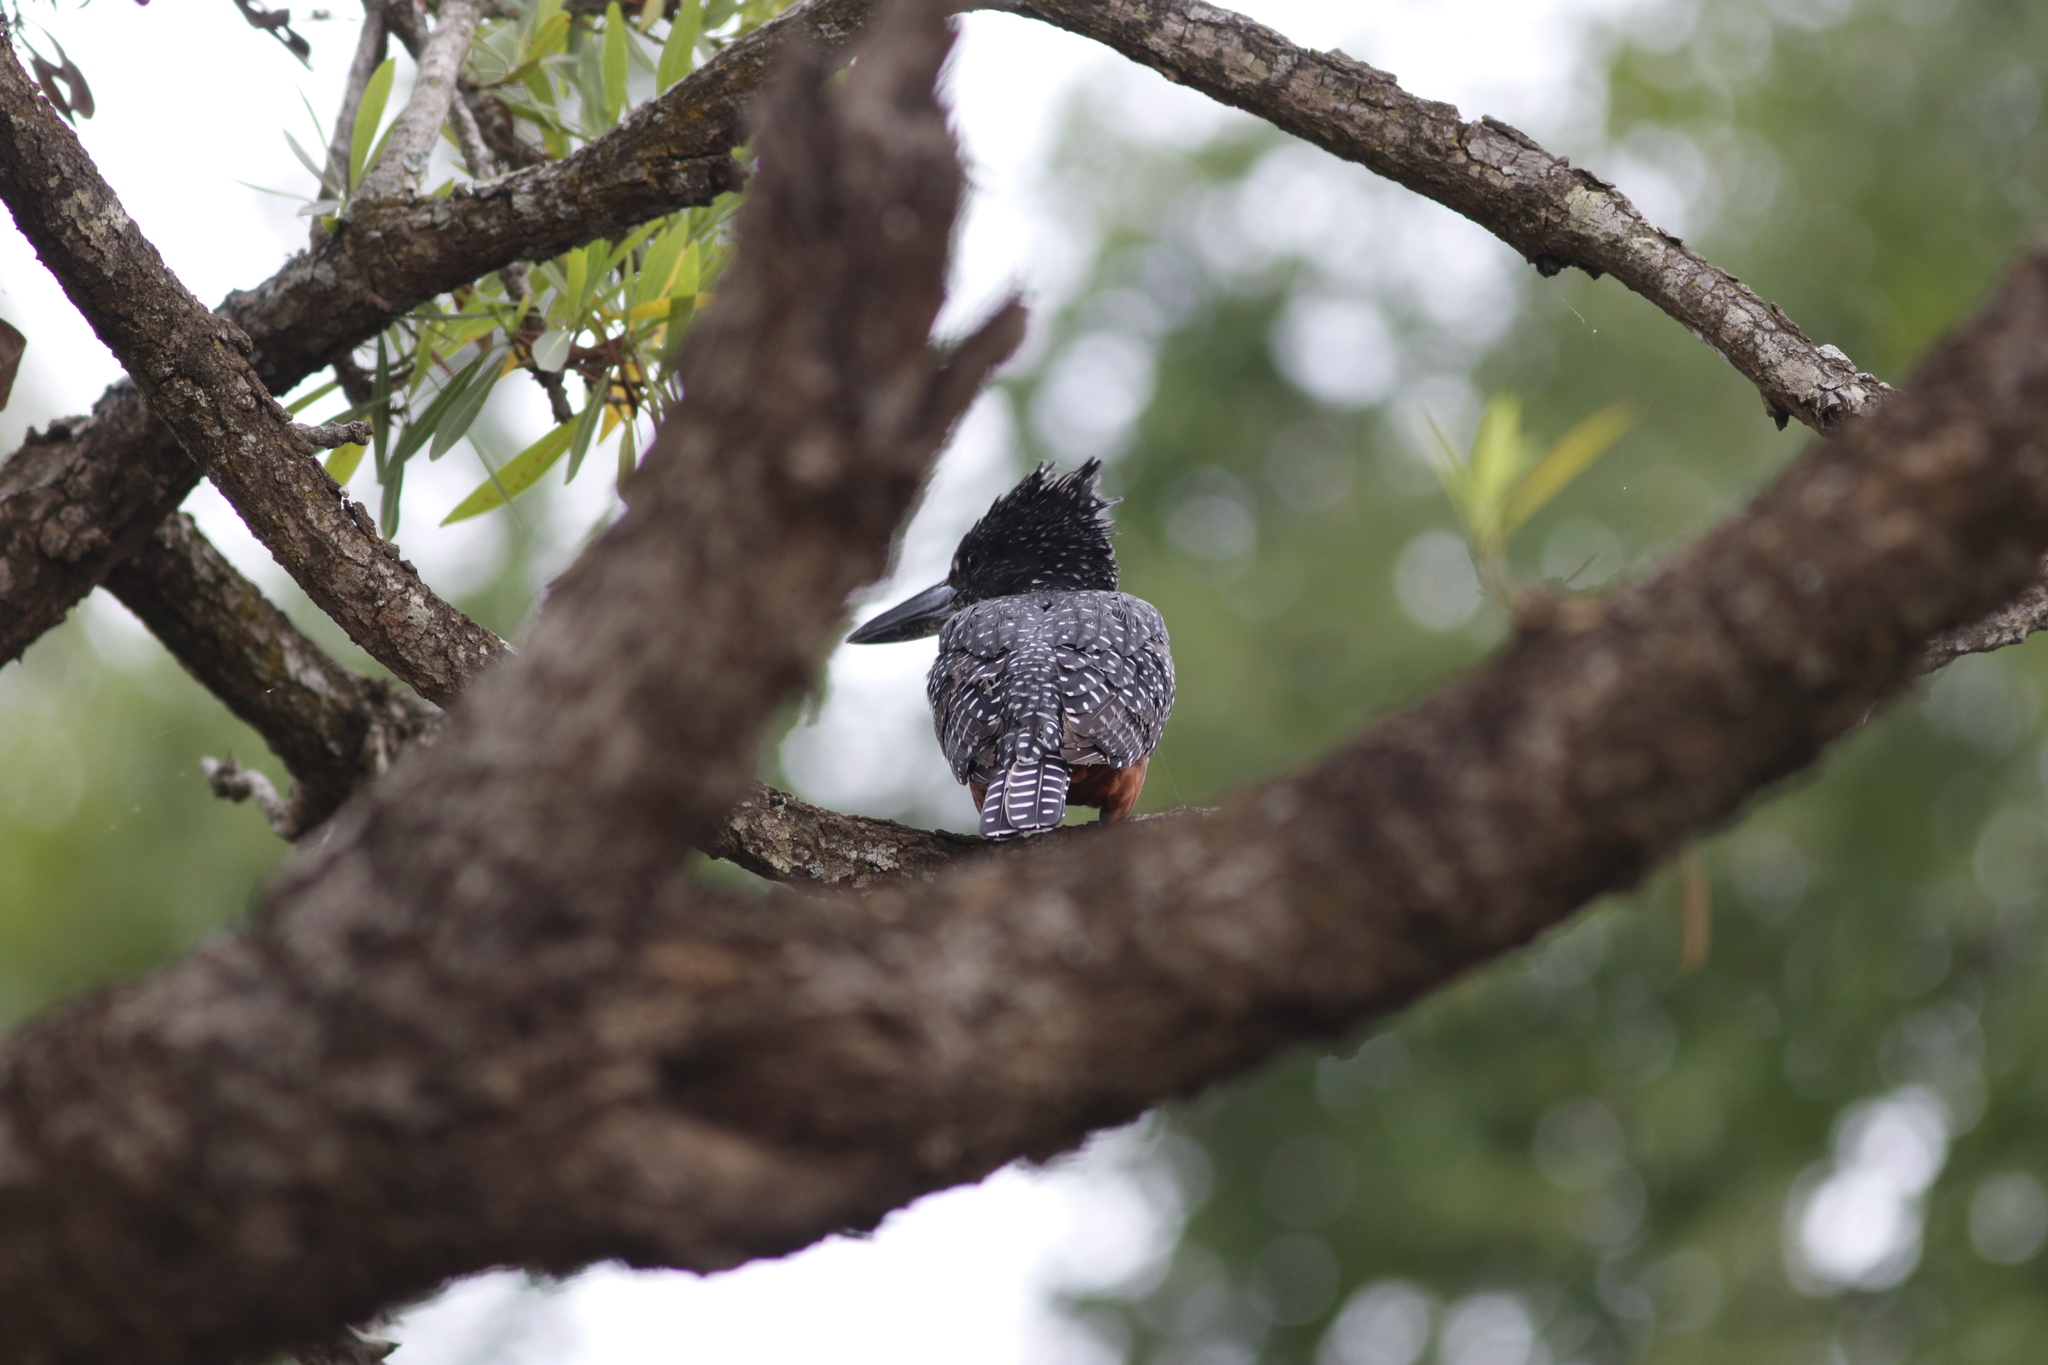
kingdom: Animalia
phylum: Chordata
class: Aves
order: Coraciiformes
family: Alcedinidae
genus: Megaceryle
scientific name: Megaceryle maxima
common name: Giant kingfisher
